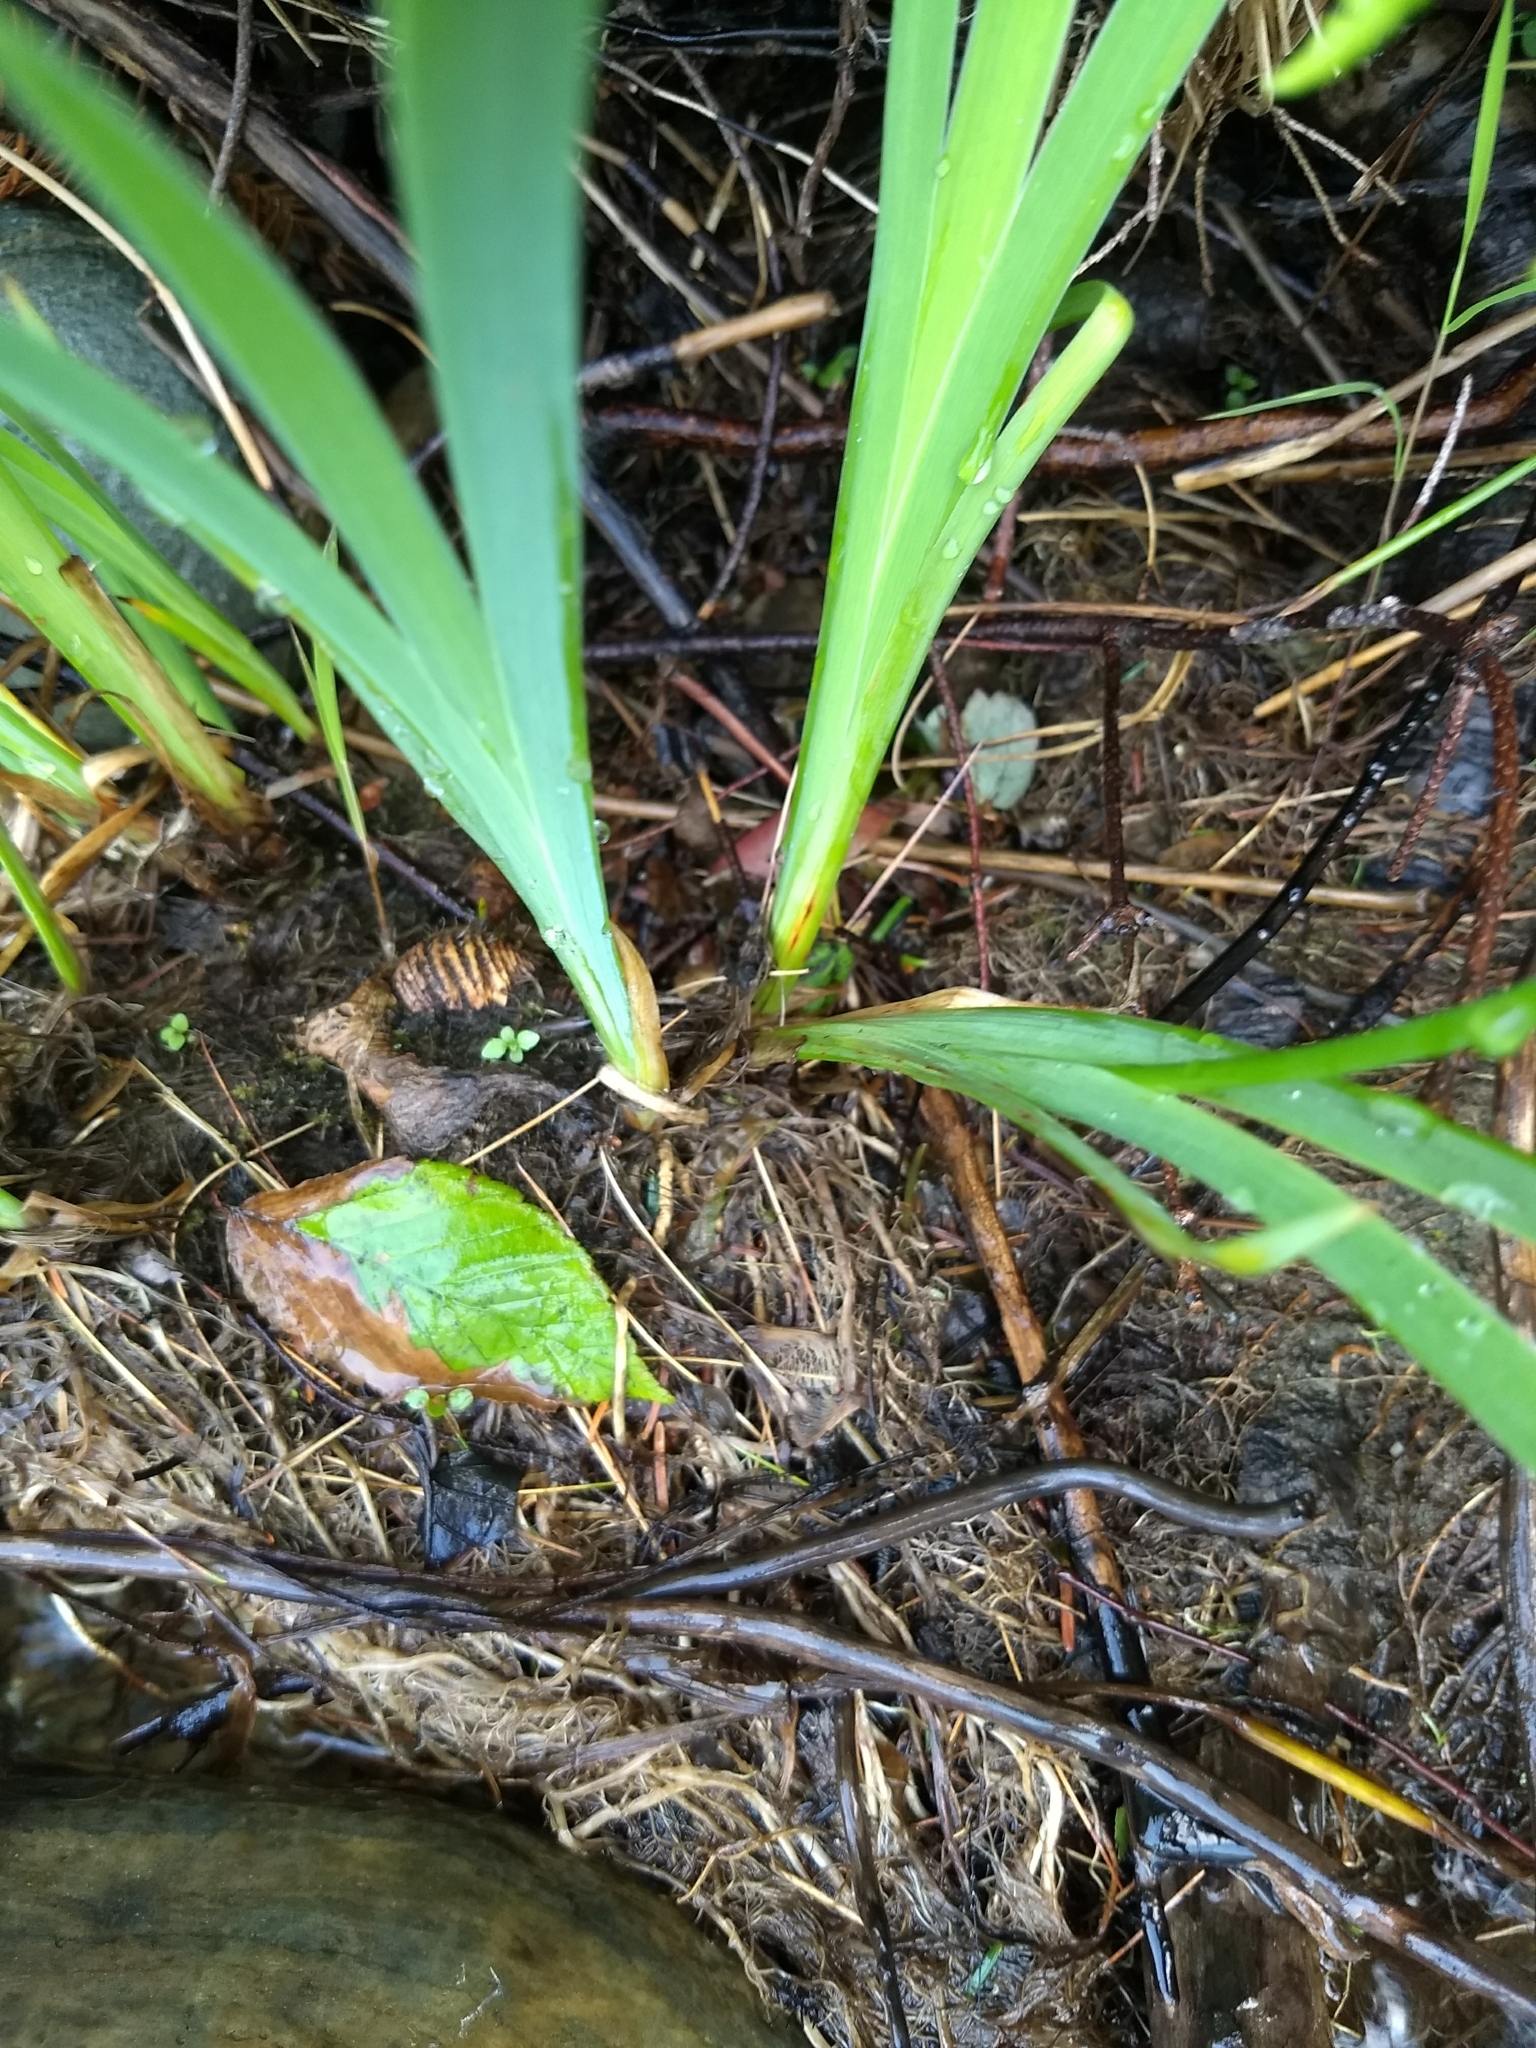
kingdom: Plantae
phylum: Tracheophyta
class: Liliopsida
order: Asparagales
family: Iridaceae
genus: Iris
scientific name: Iris versicolor
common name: Purple iris
